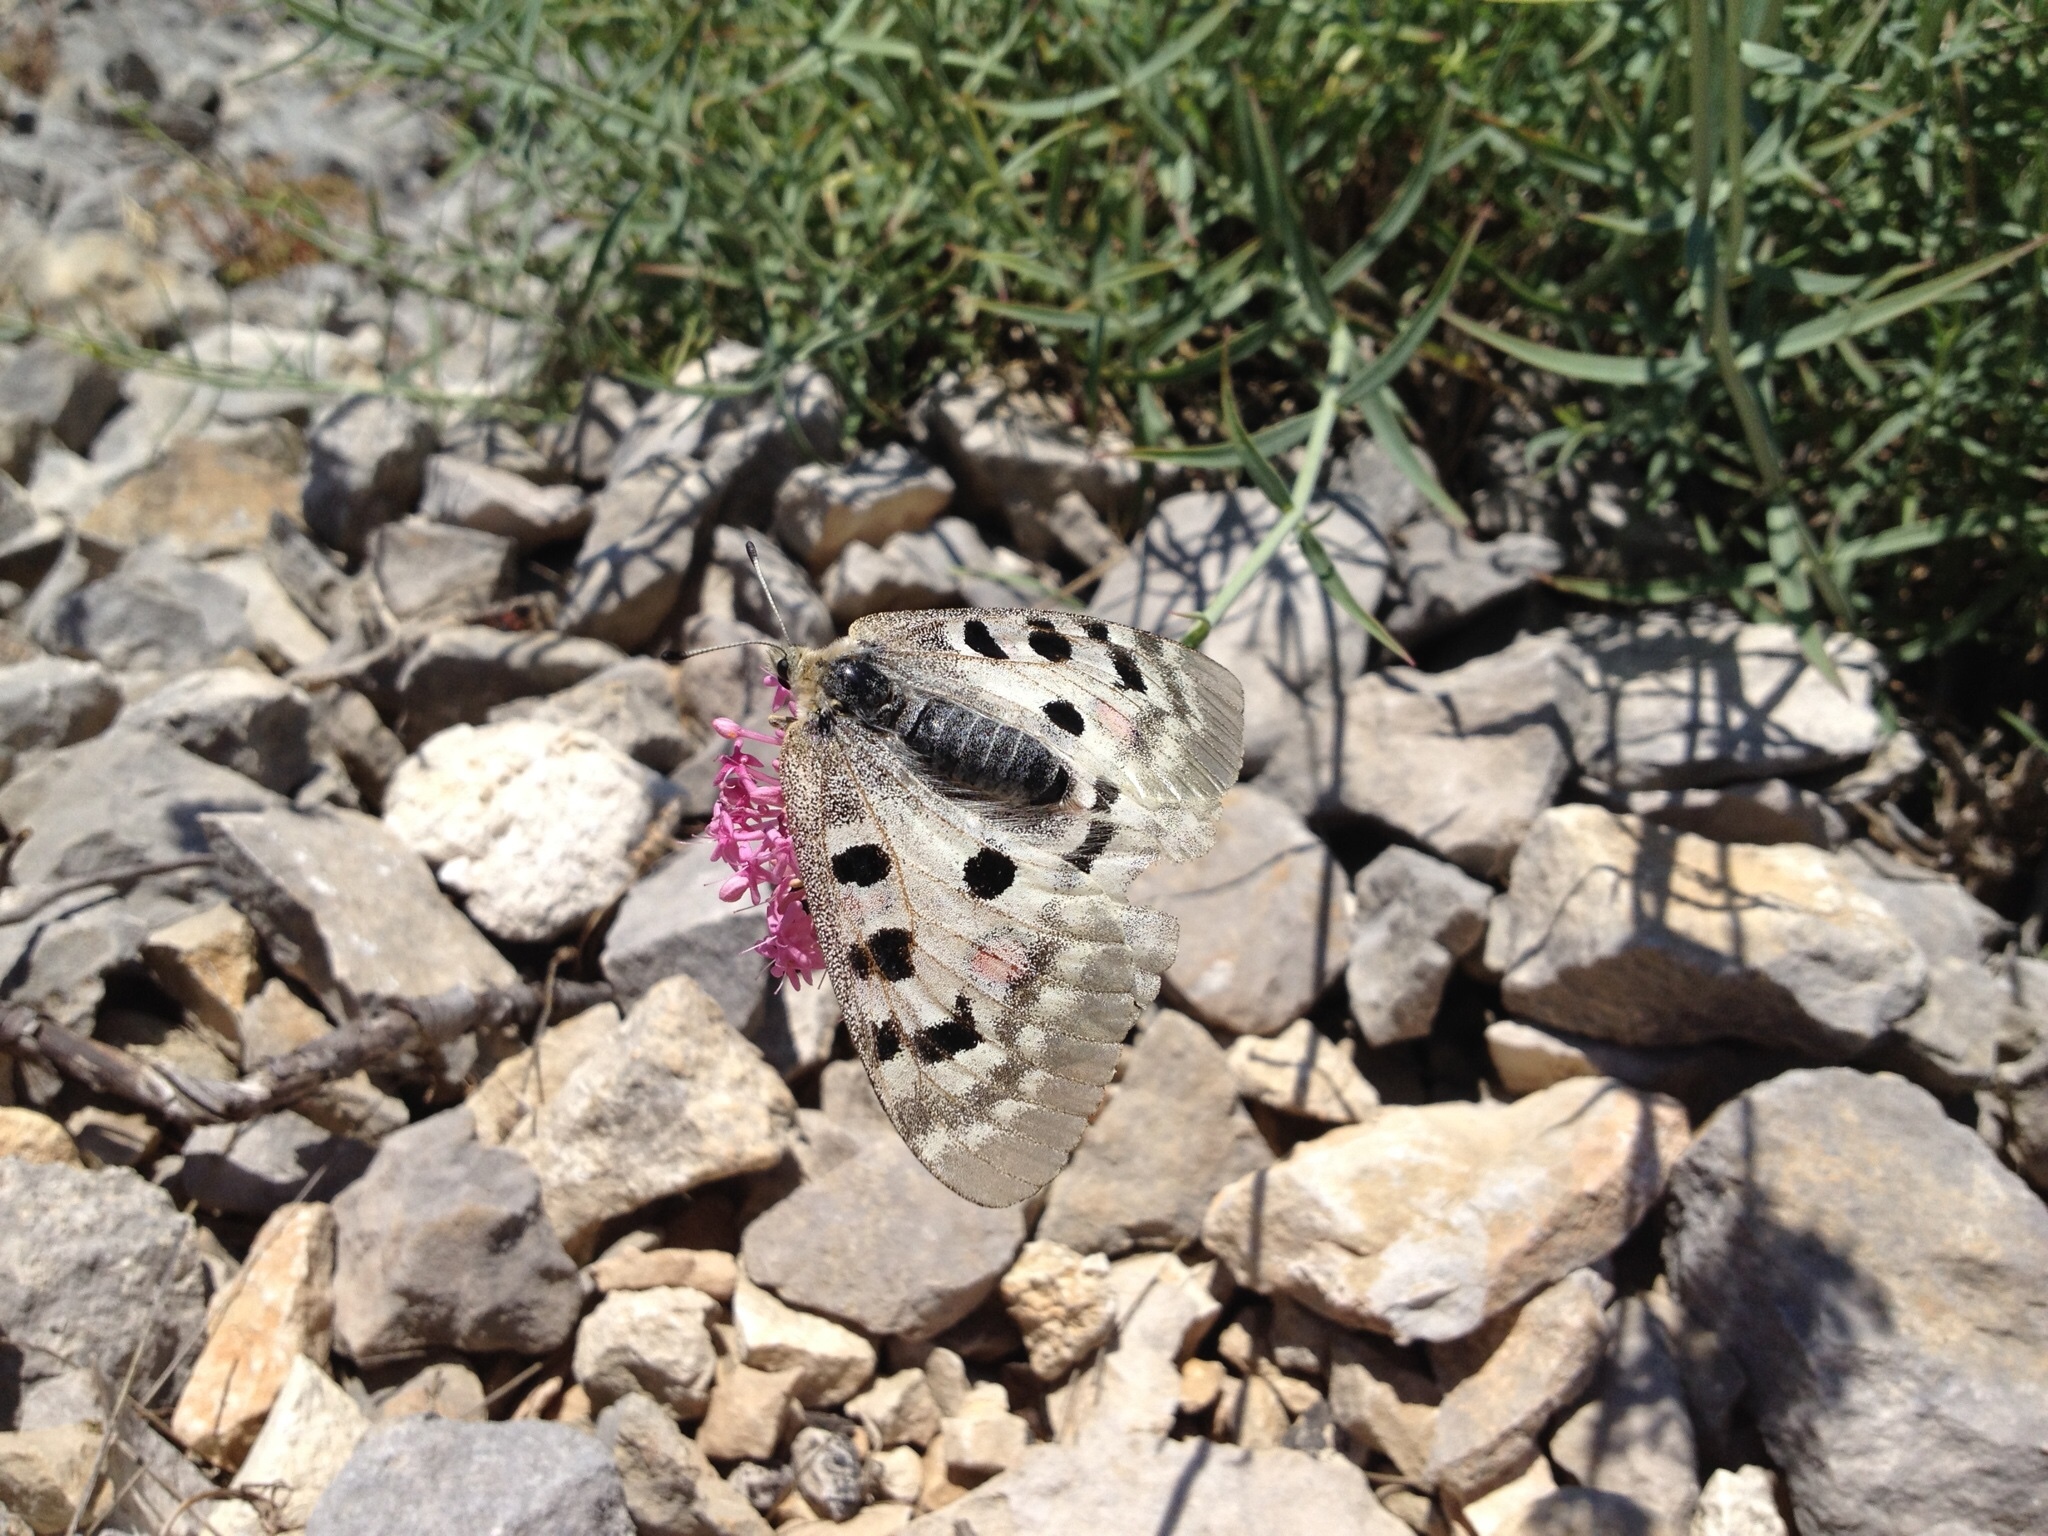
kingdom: Animalia
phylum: Arthropoda
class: Insecta
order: Lepidoptera
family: Papilionidae
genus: Parnassius
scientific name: Parnassius apollo
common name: Apollo
